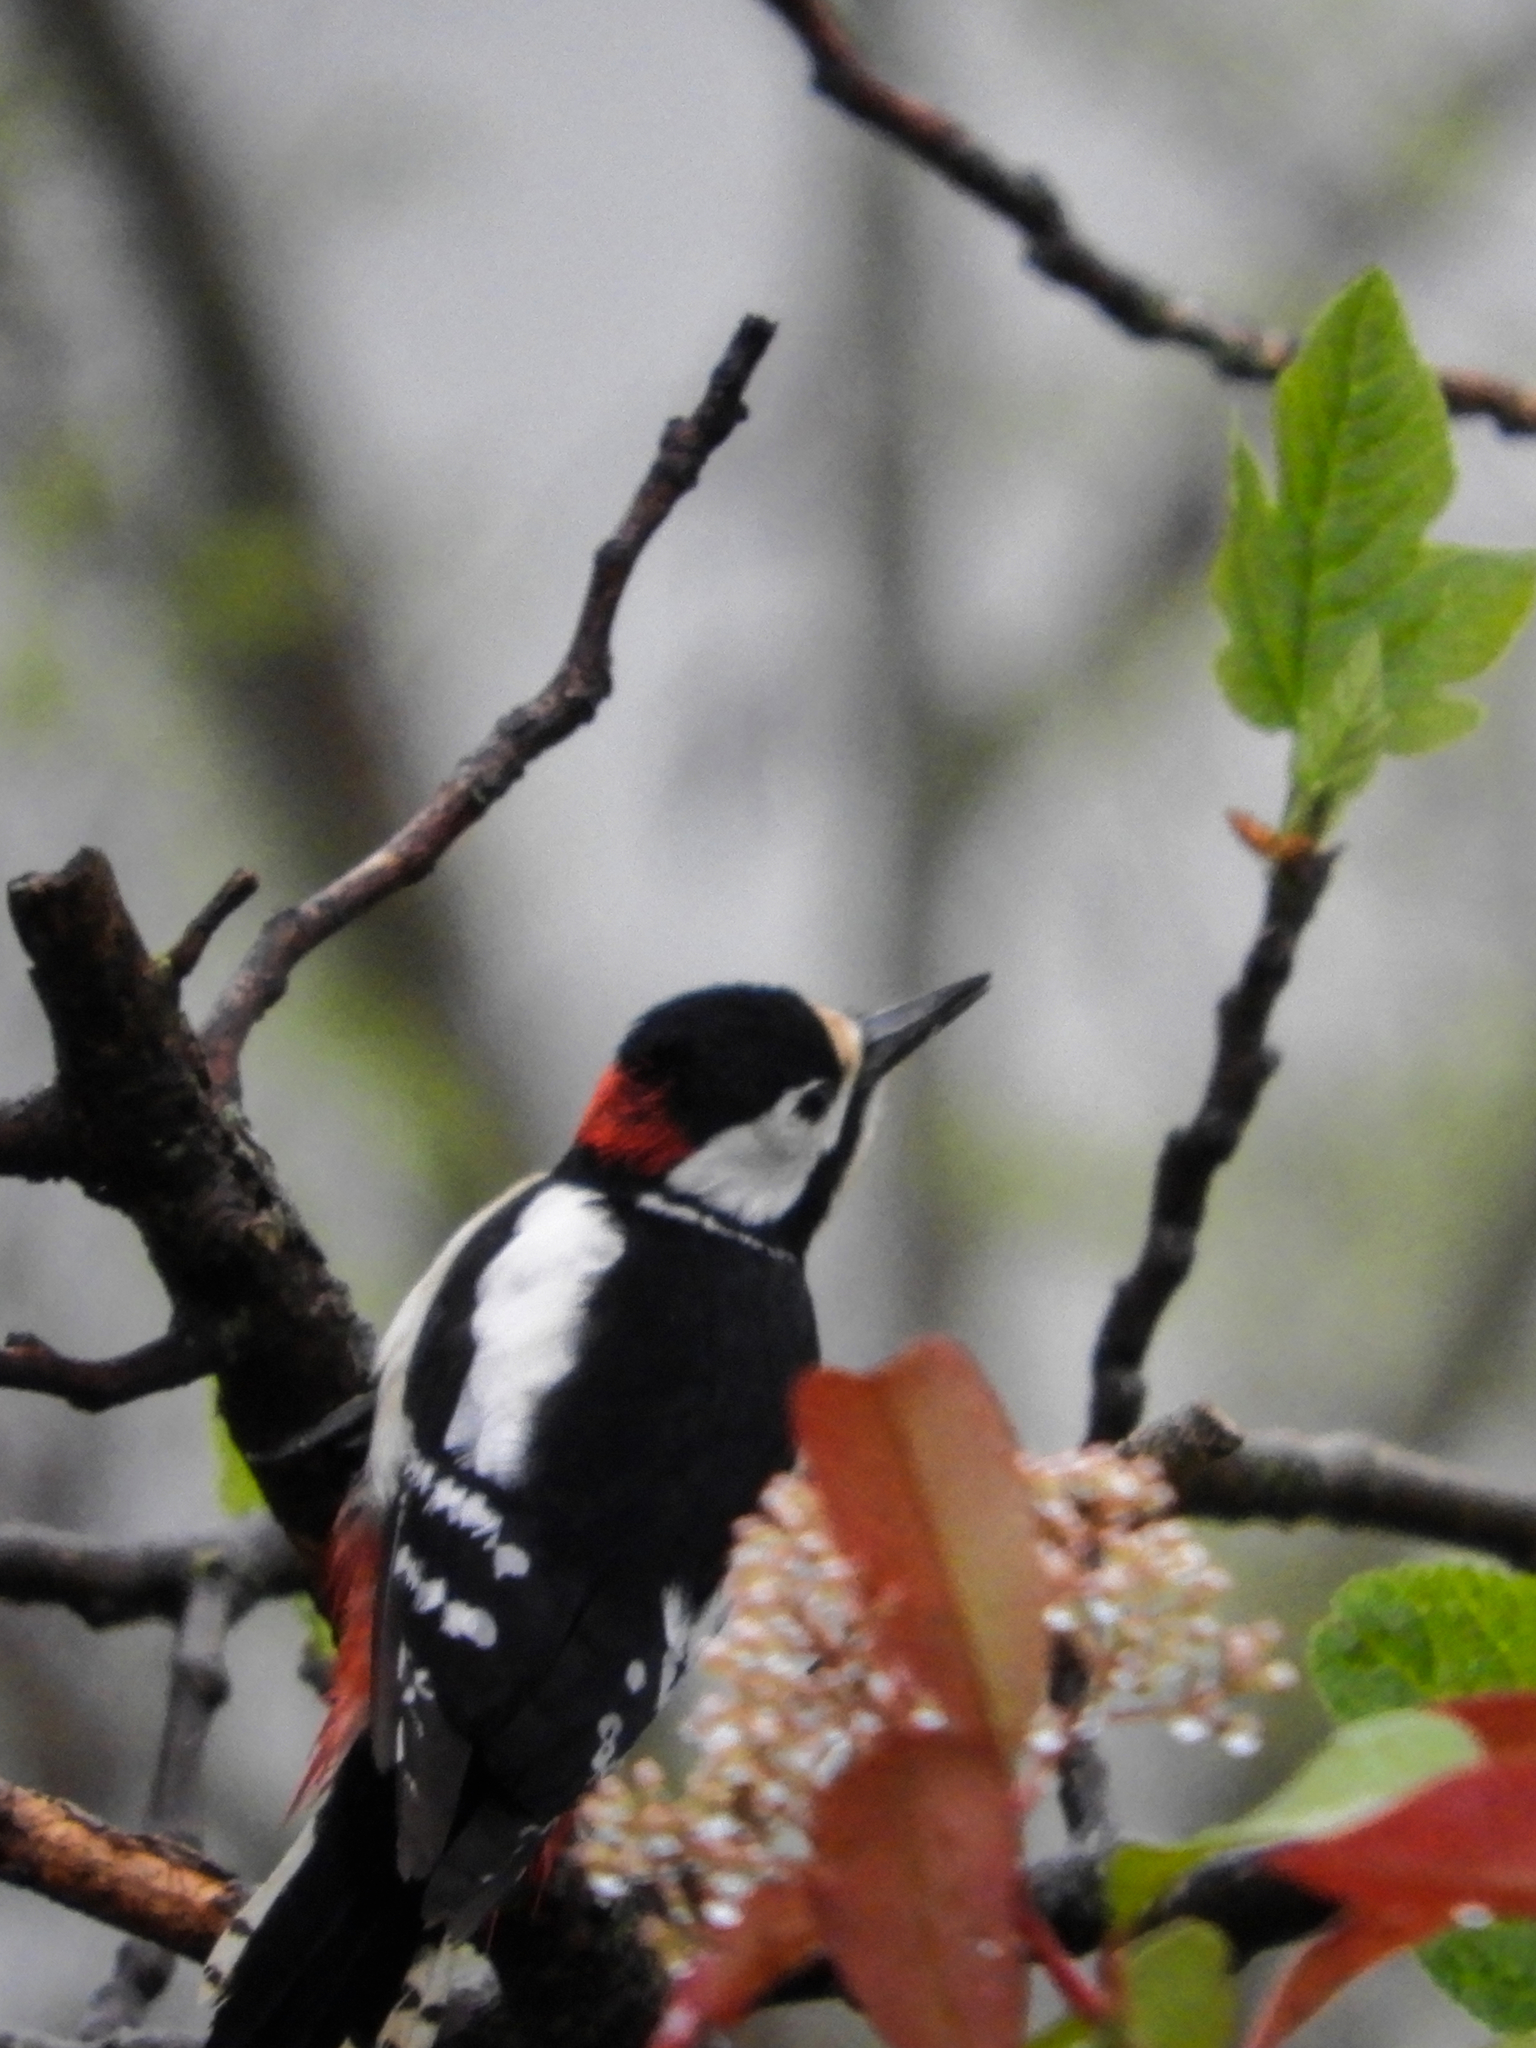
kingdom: Animalia
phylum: Chordata
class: Aves
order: Piciformes
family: Picidae
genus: Dendrocopos
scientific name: Dendrocopos major
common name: Great spotted woodpecker
